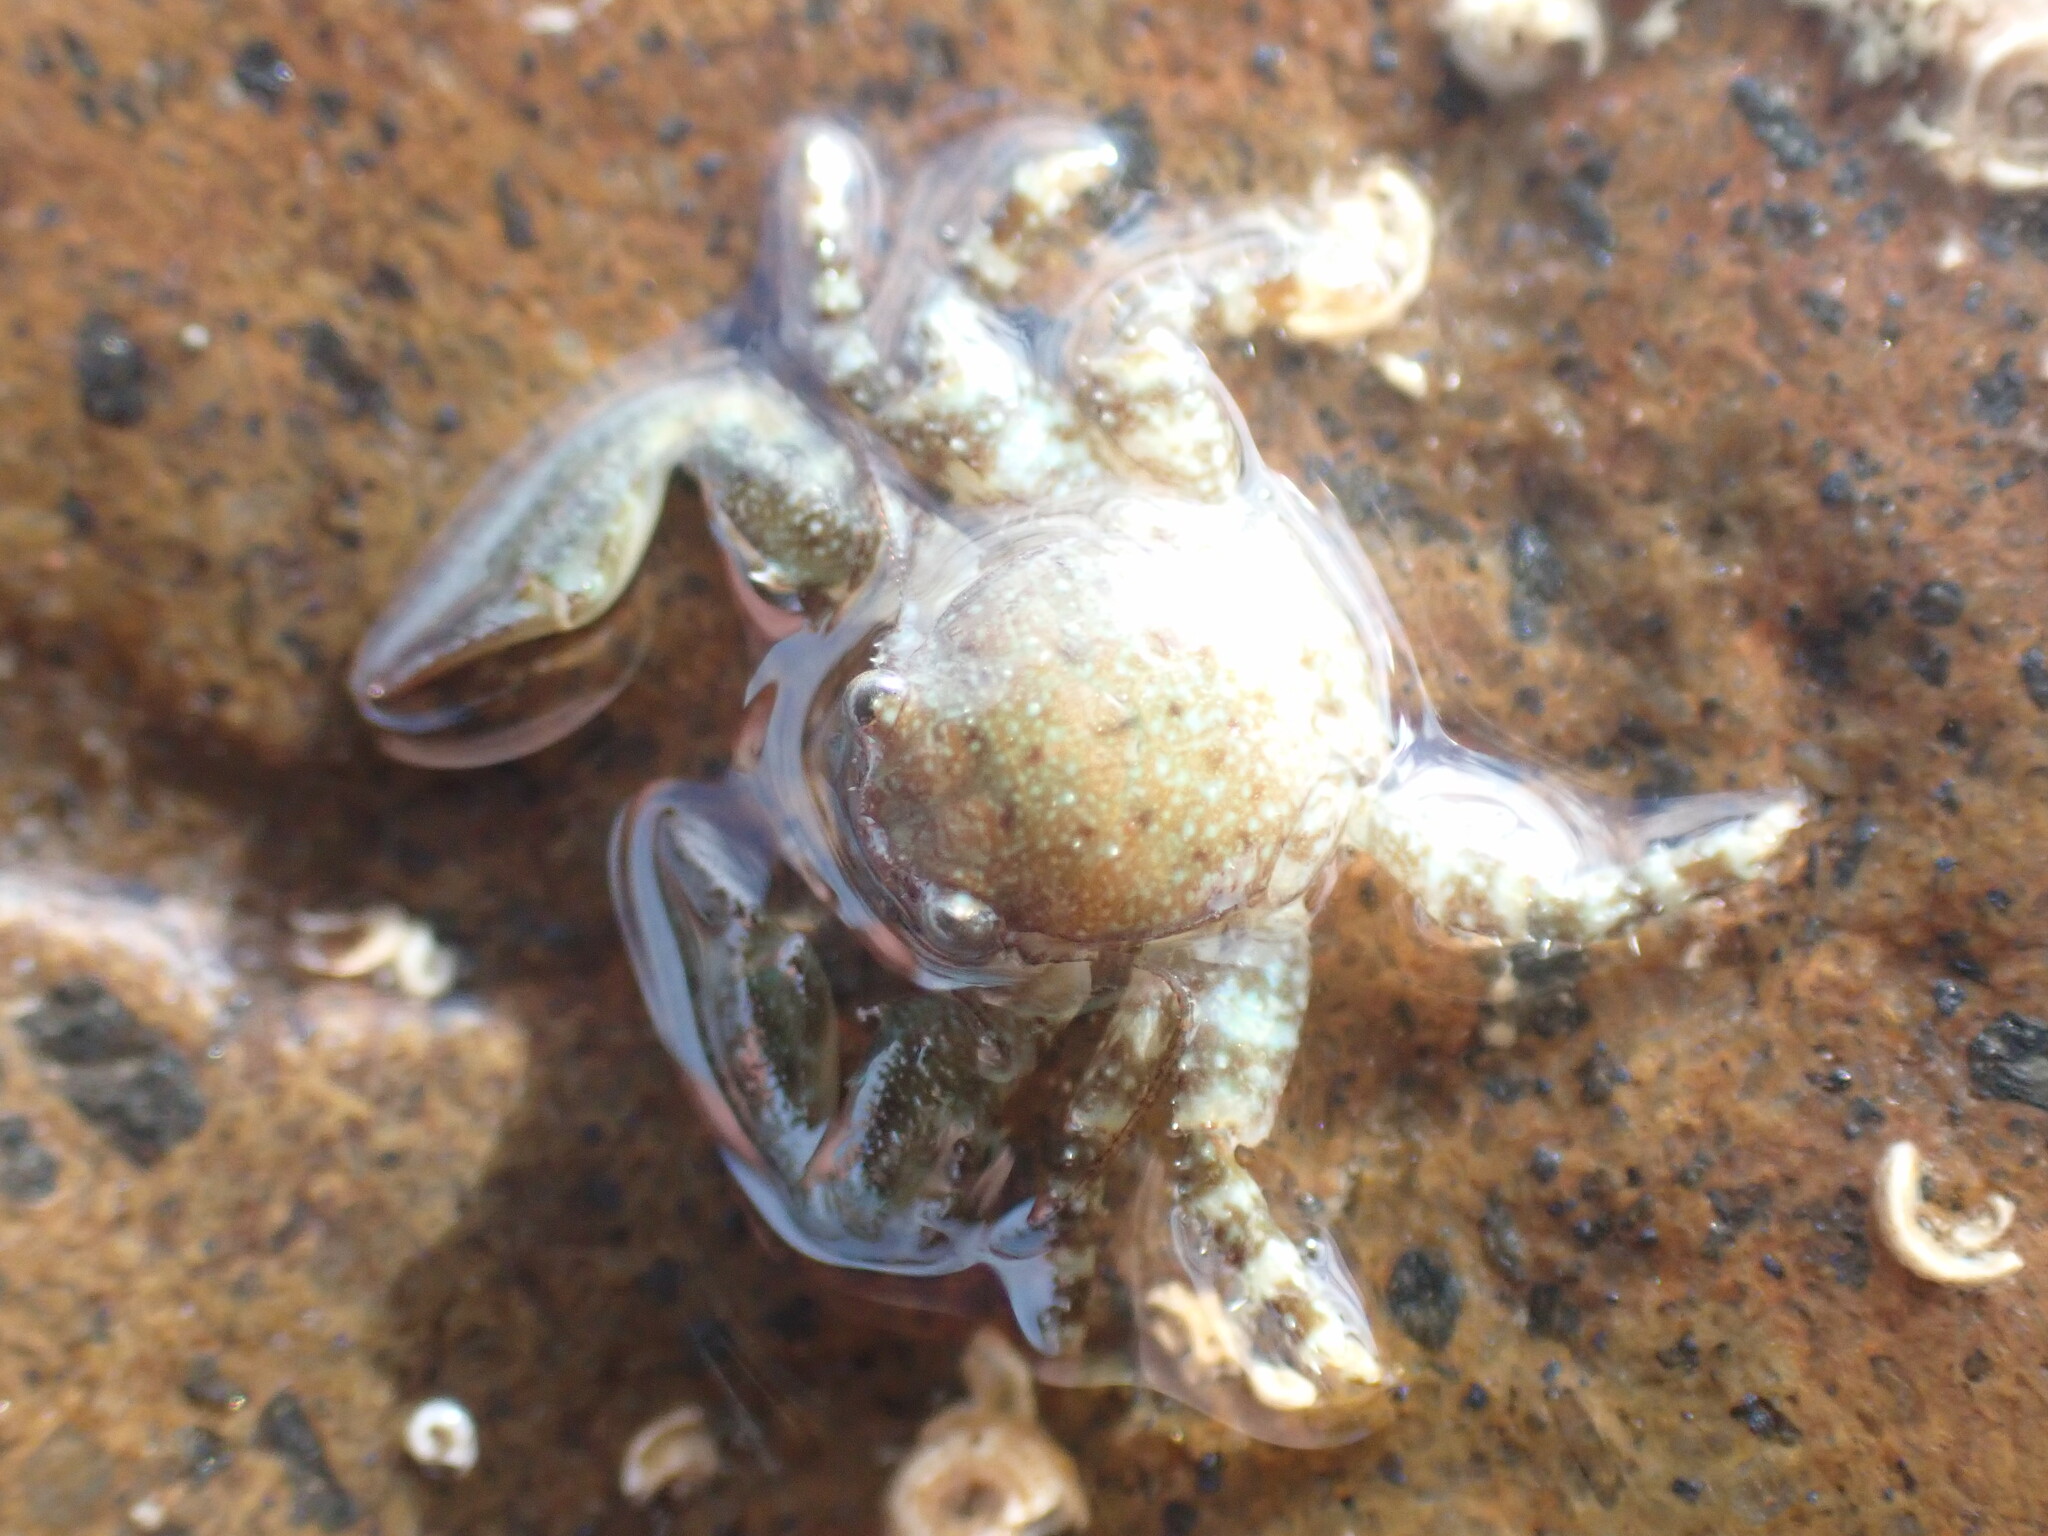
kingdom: Animalia
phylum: Arthropoda
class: Malacostraca
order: Decapoda
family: Porcellanidae
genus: Petrolisthes
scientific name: Petrolisthes elongatus
